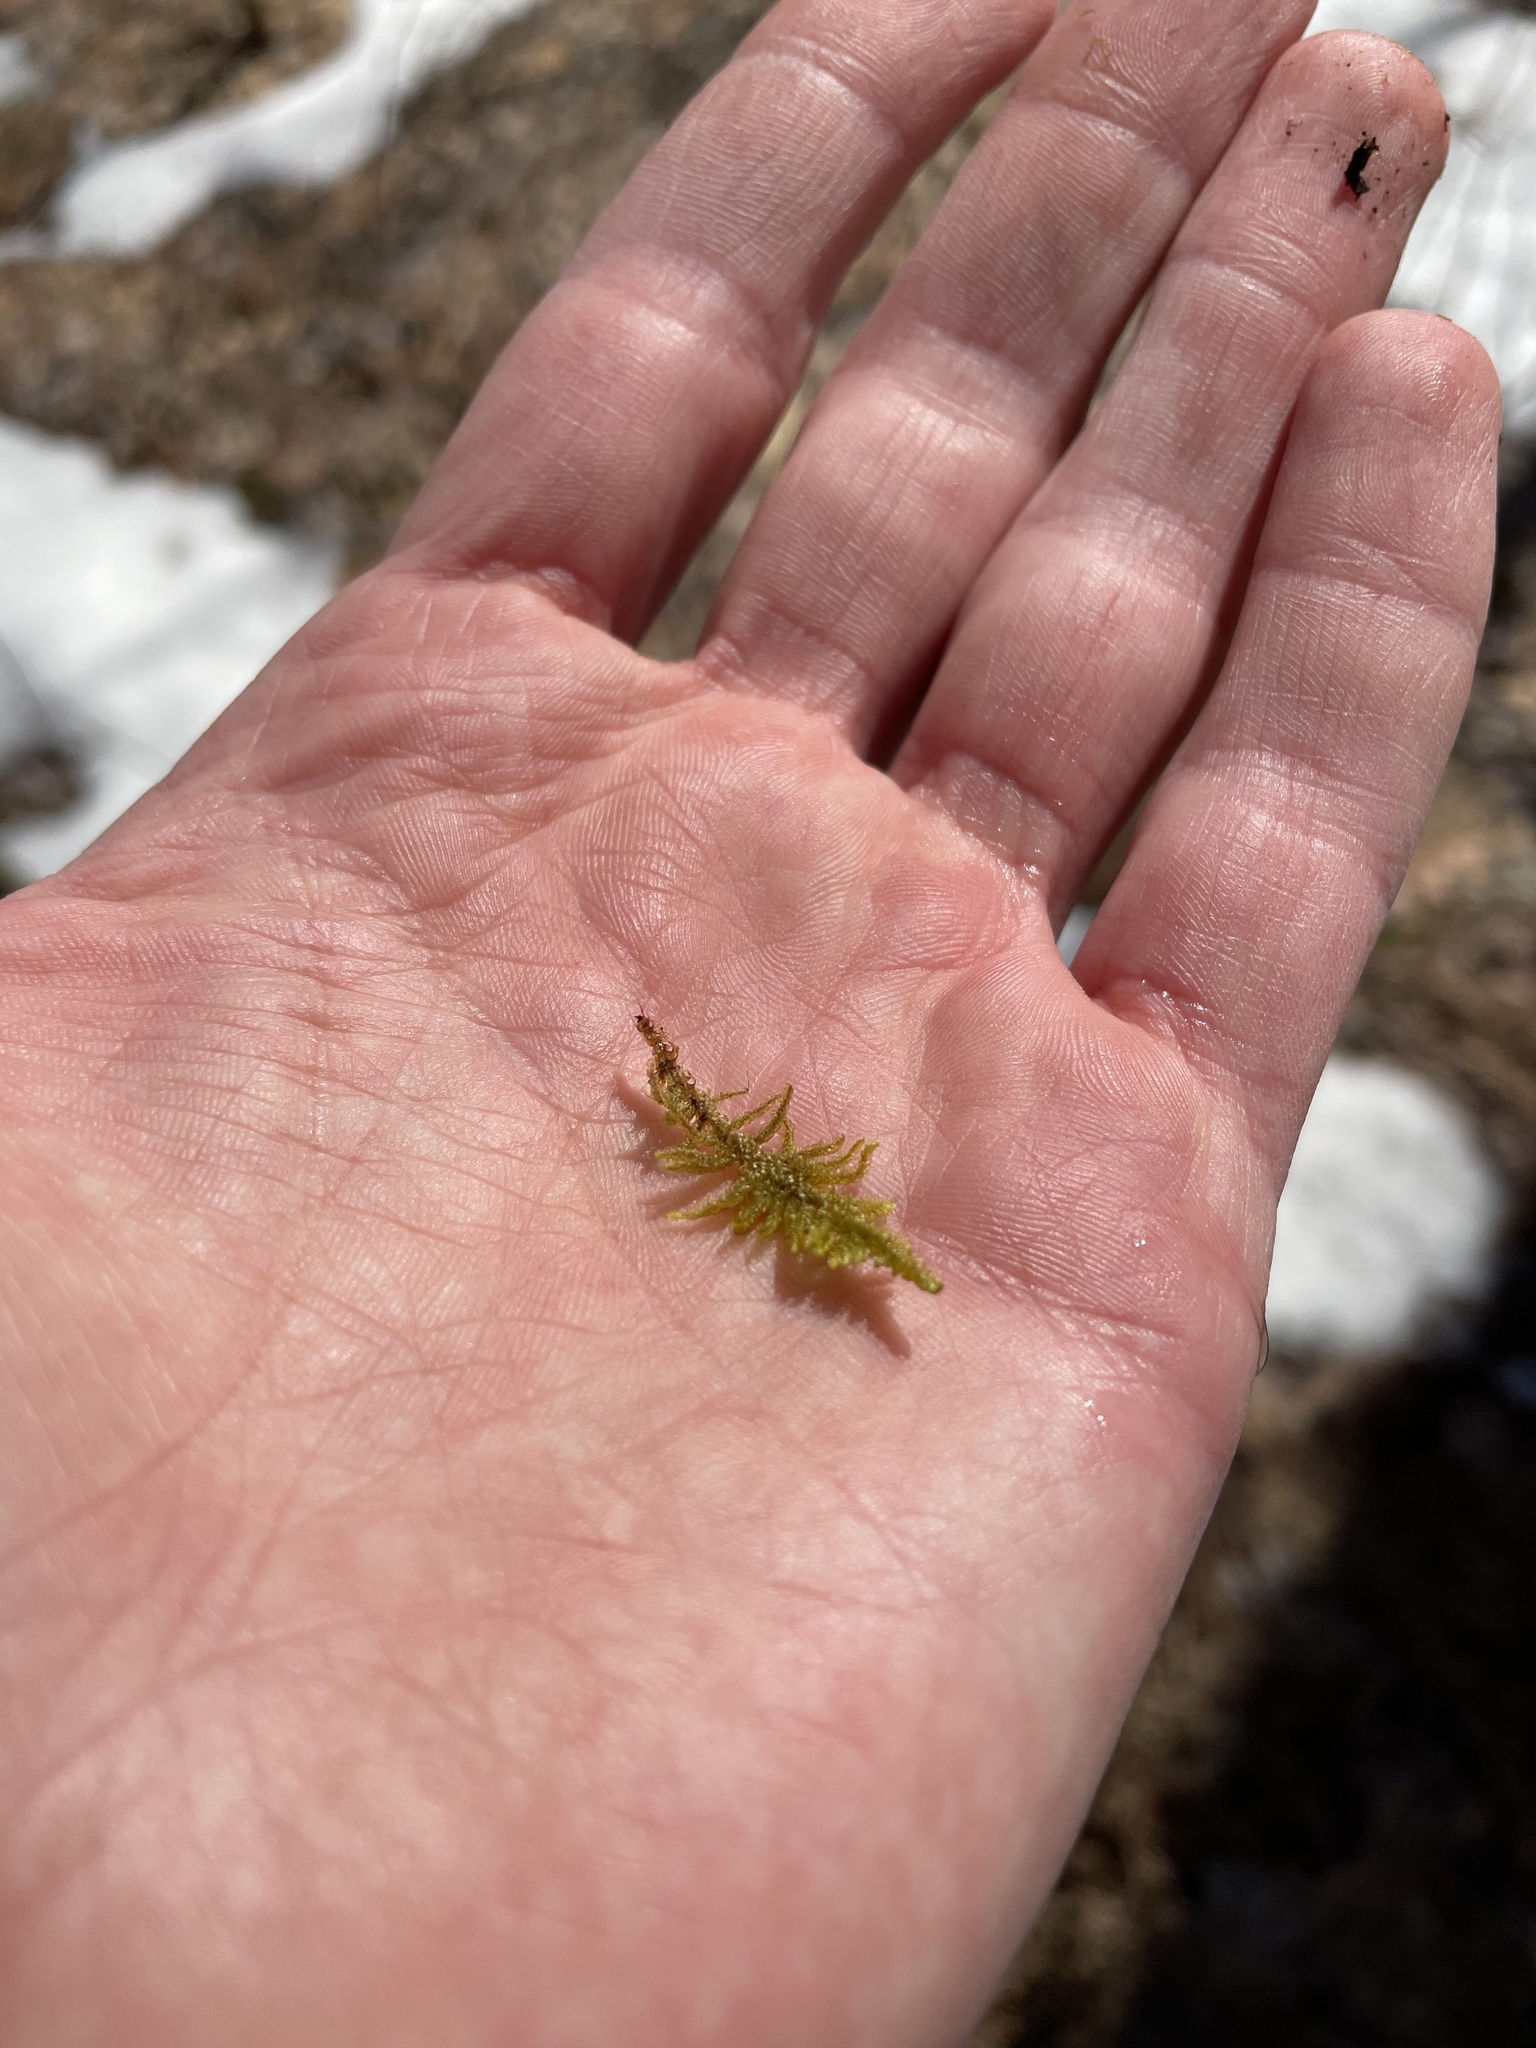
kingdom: Plantae
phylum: Bryophyta
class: Bryopsida
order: Hypnales
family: Callicladiaceae
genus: Callicladium
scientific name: Callicladium imponens
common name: Brocade moss
